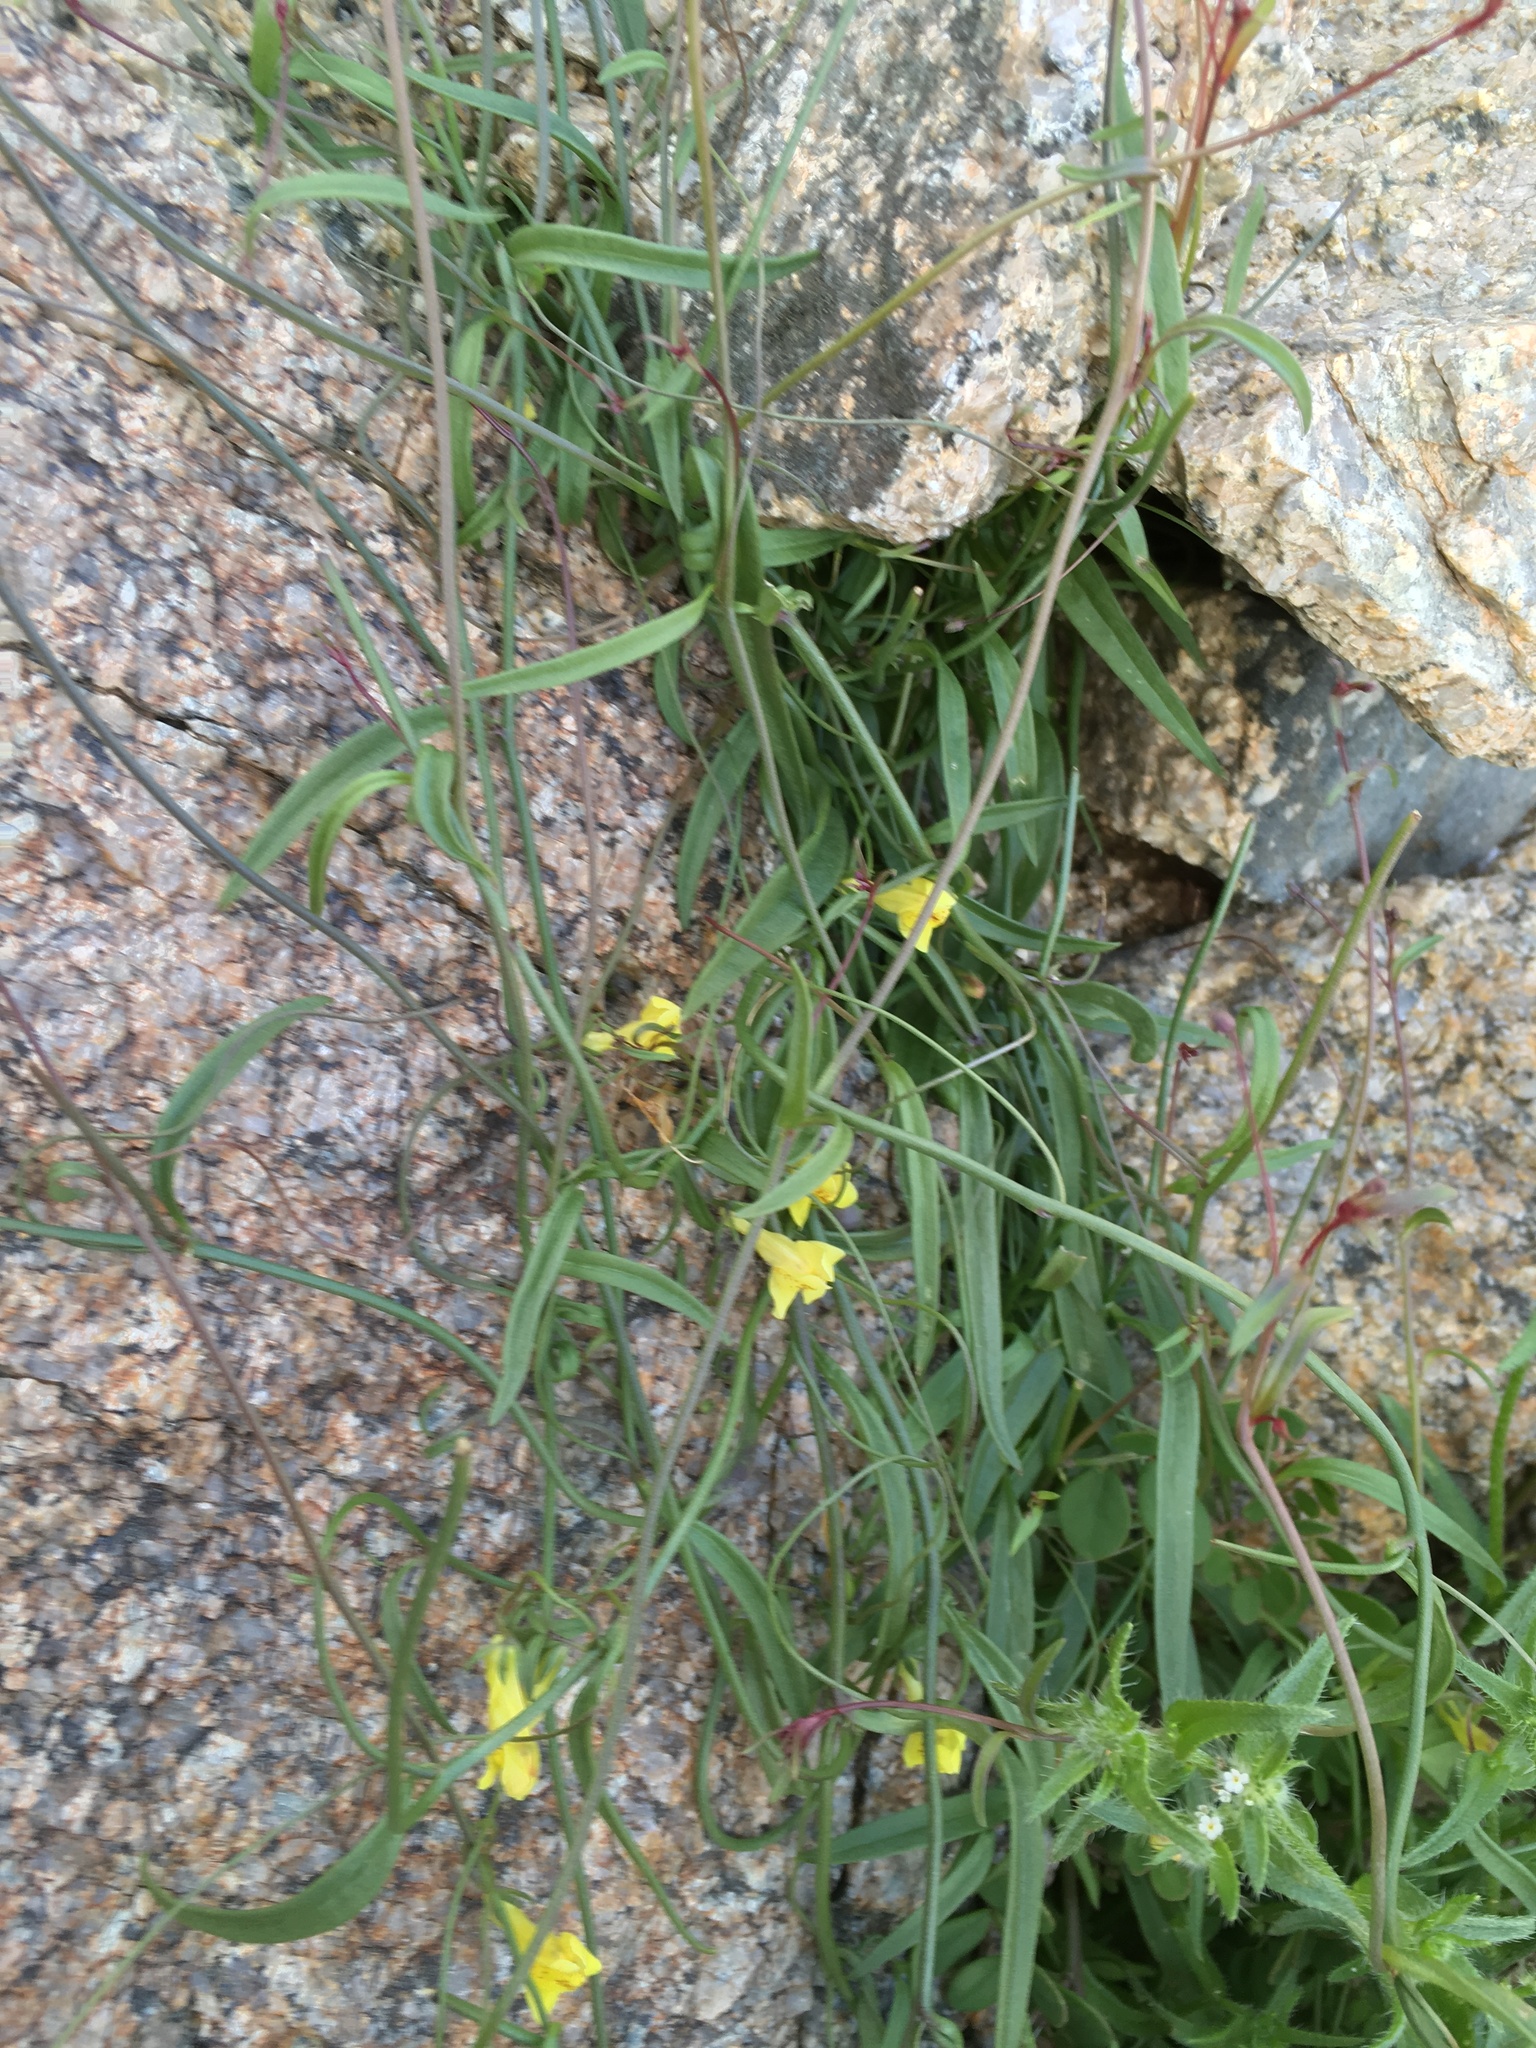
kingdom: Plantae
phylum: Tracheophyta
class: Magnoliopsida
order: Lamiales
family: Plantaginaceae
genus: Neogaerrhinum
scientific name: Neogaerrhinum filipes
